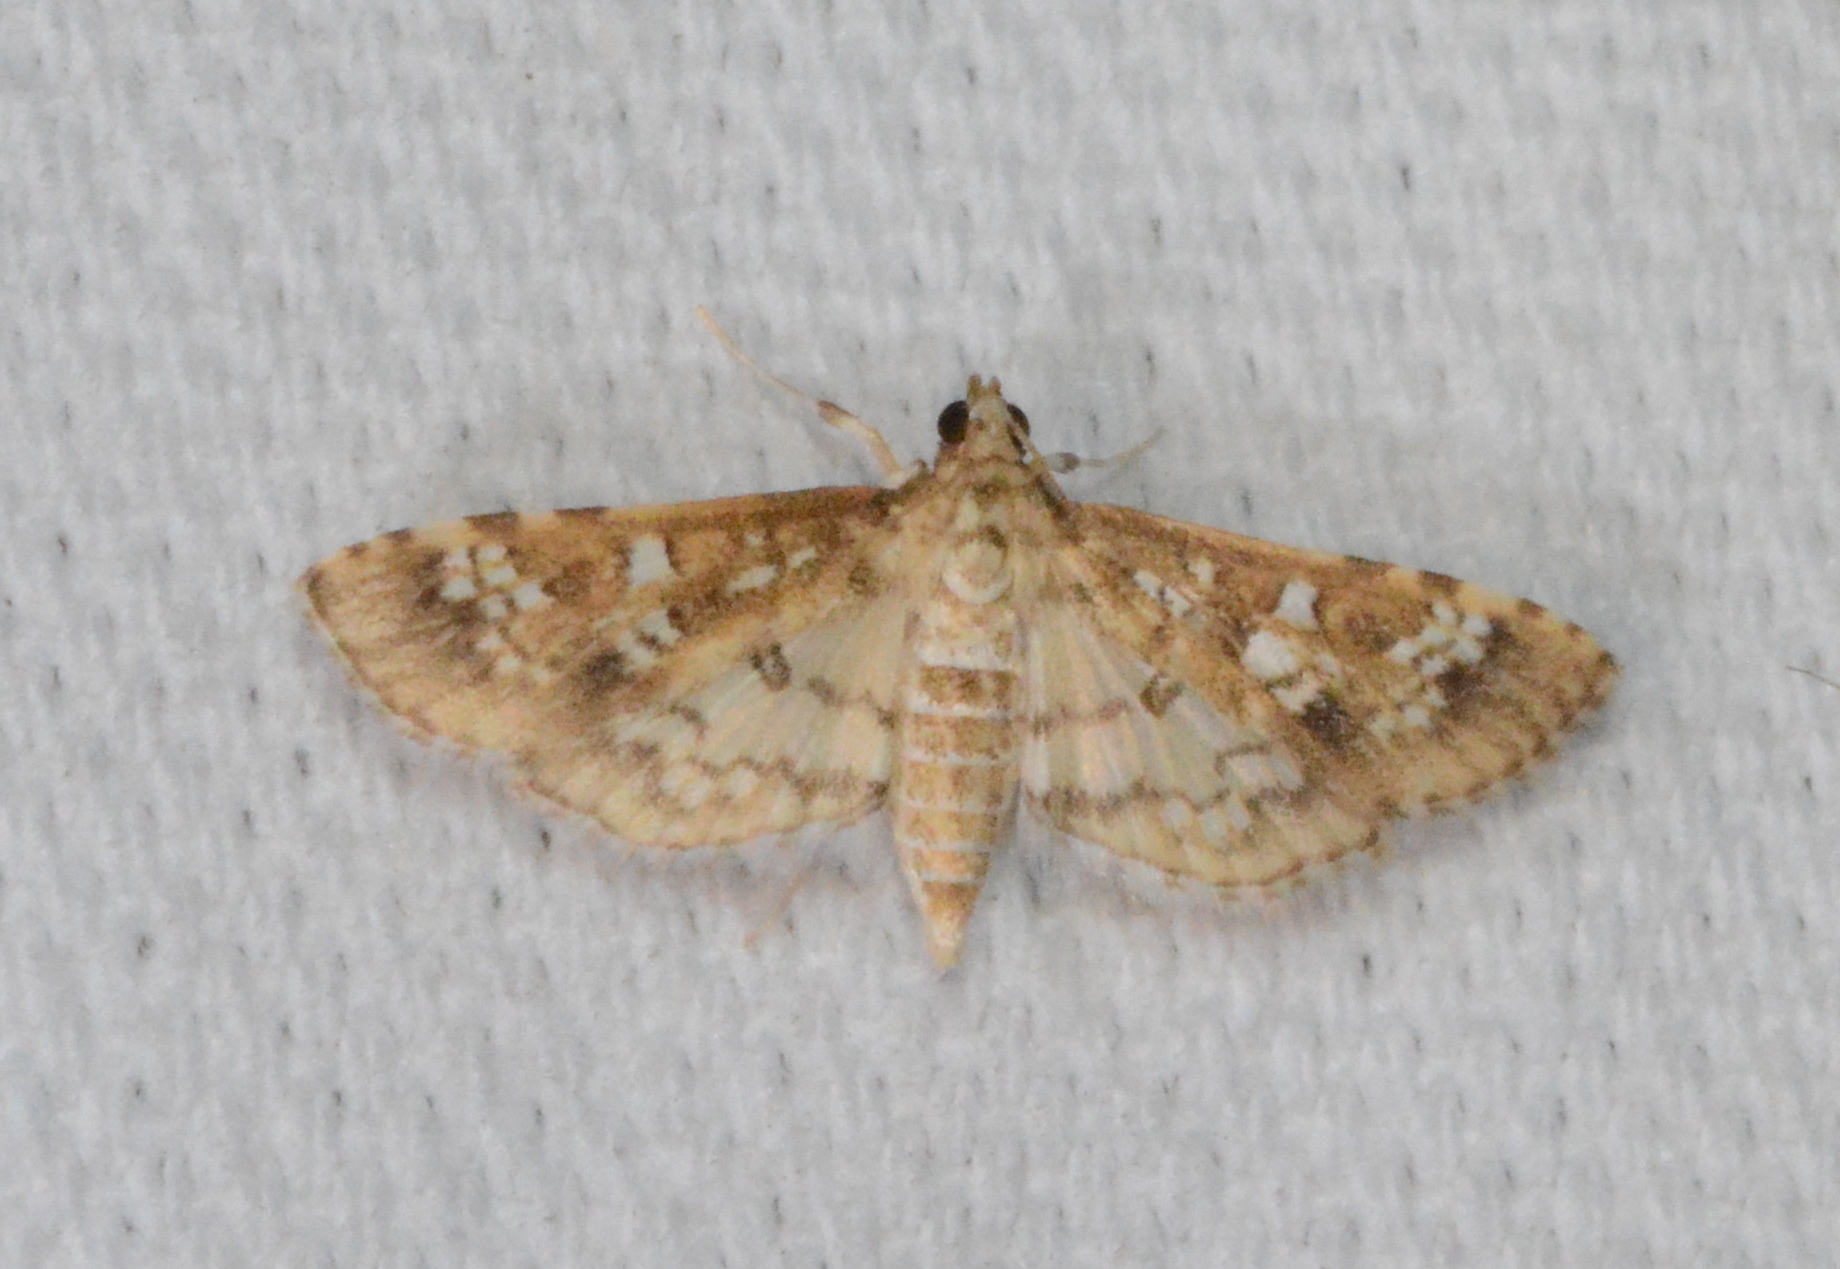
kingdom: Animalia
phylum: Arthropoda
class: Insecta
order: Lepidoptera
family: Crambidae
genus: Samea
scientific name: Samea multiplicalis
